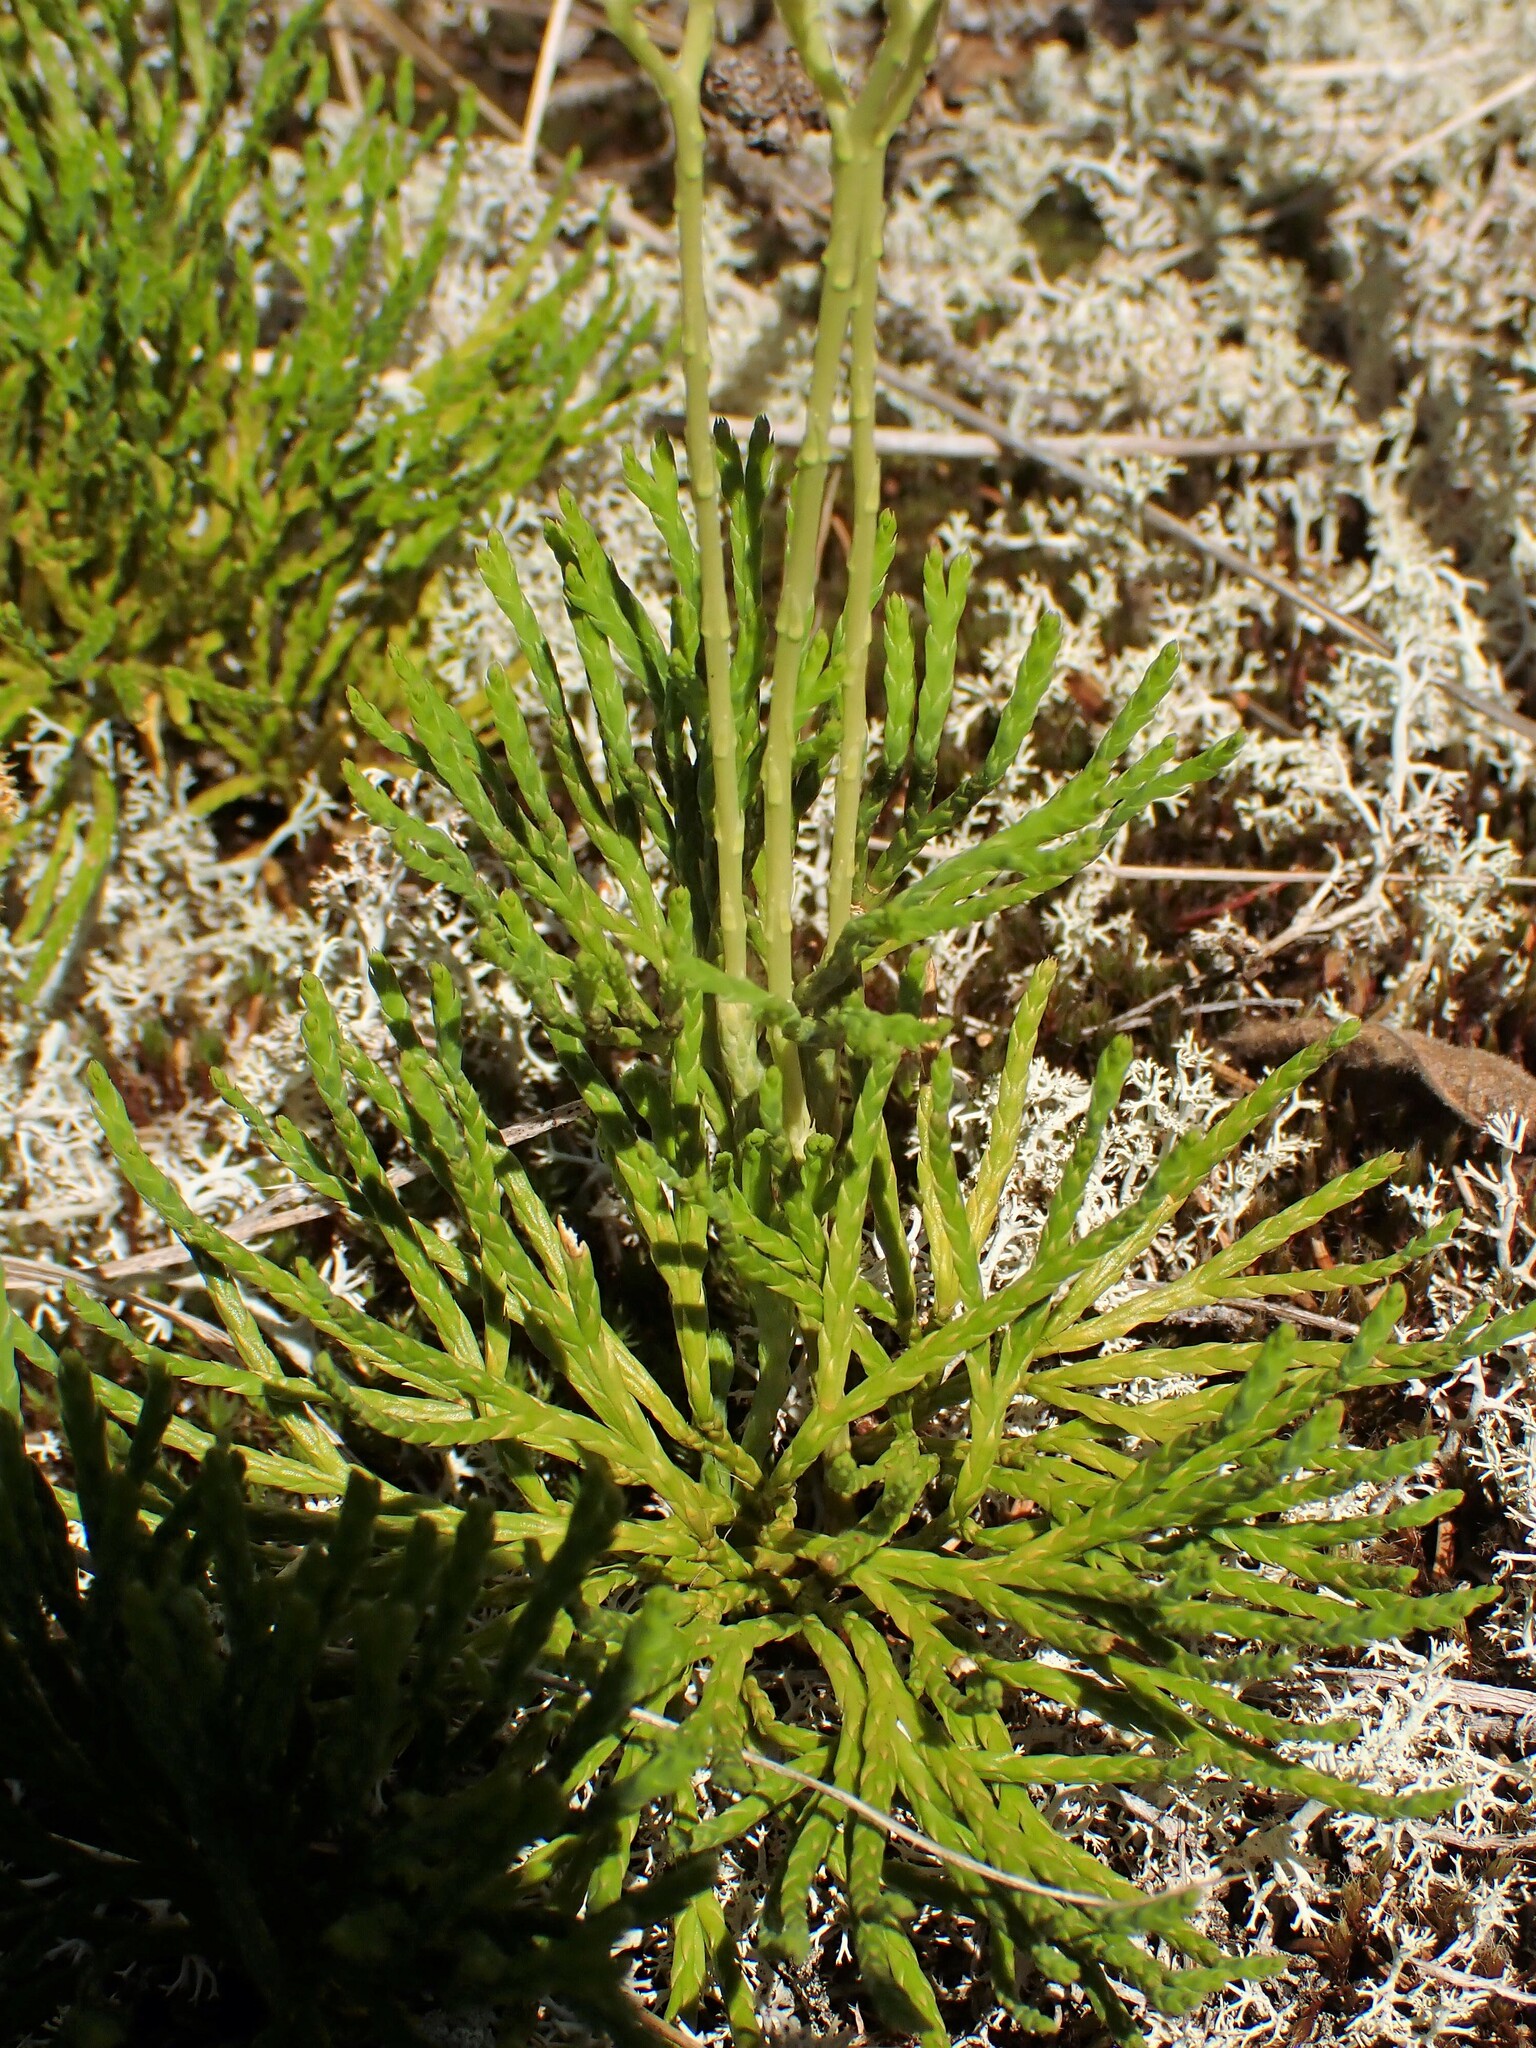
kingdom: Plantae
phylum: Tracheophyta
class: Lycopodiopsida
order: Lycopodiales
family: Lycopodiaceae
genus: Diphasiastrum
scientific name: Diphasiastrum tristachyum
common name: Blue ground-cedar
